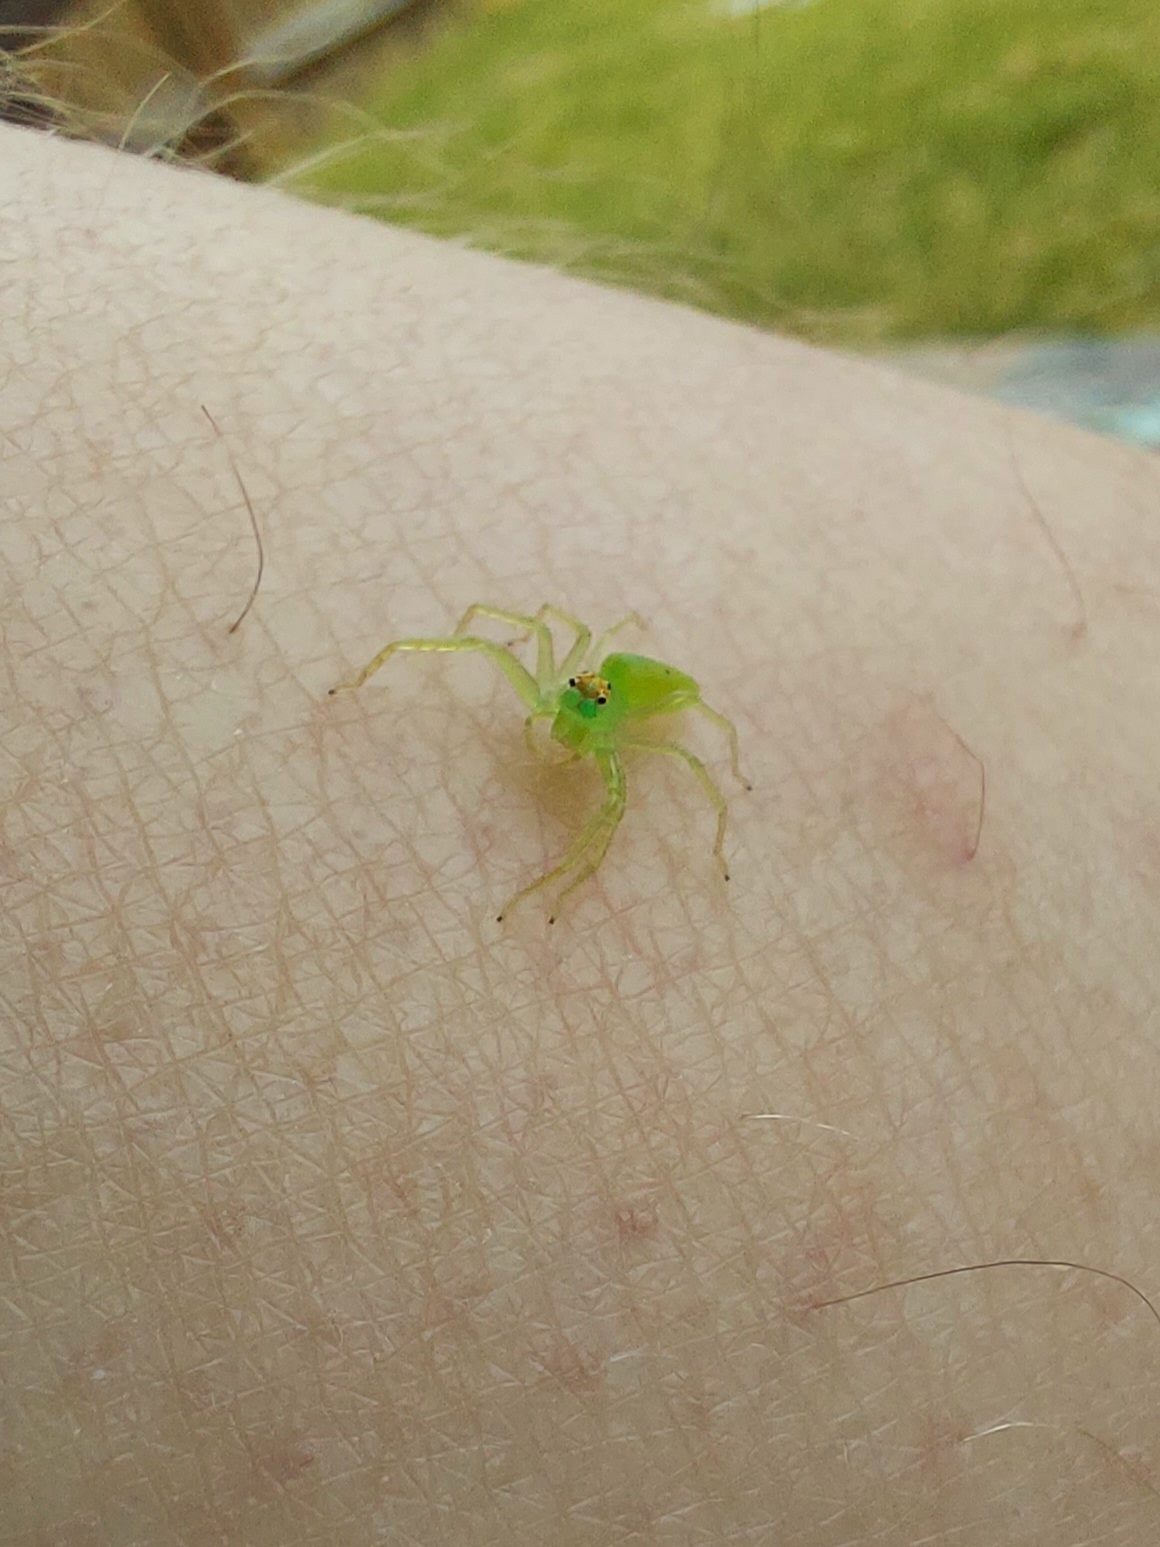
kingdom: Animalia
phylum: Arthropoda
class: Arachnida
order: Araneae
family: Salticidae
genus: Lyssomanes
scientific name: Lyssomanes viridis
